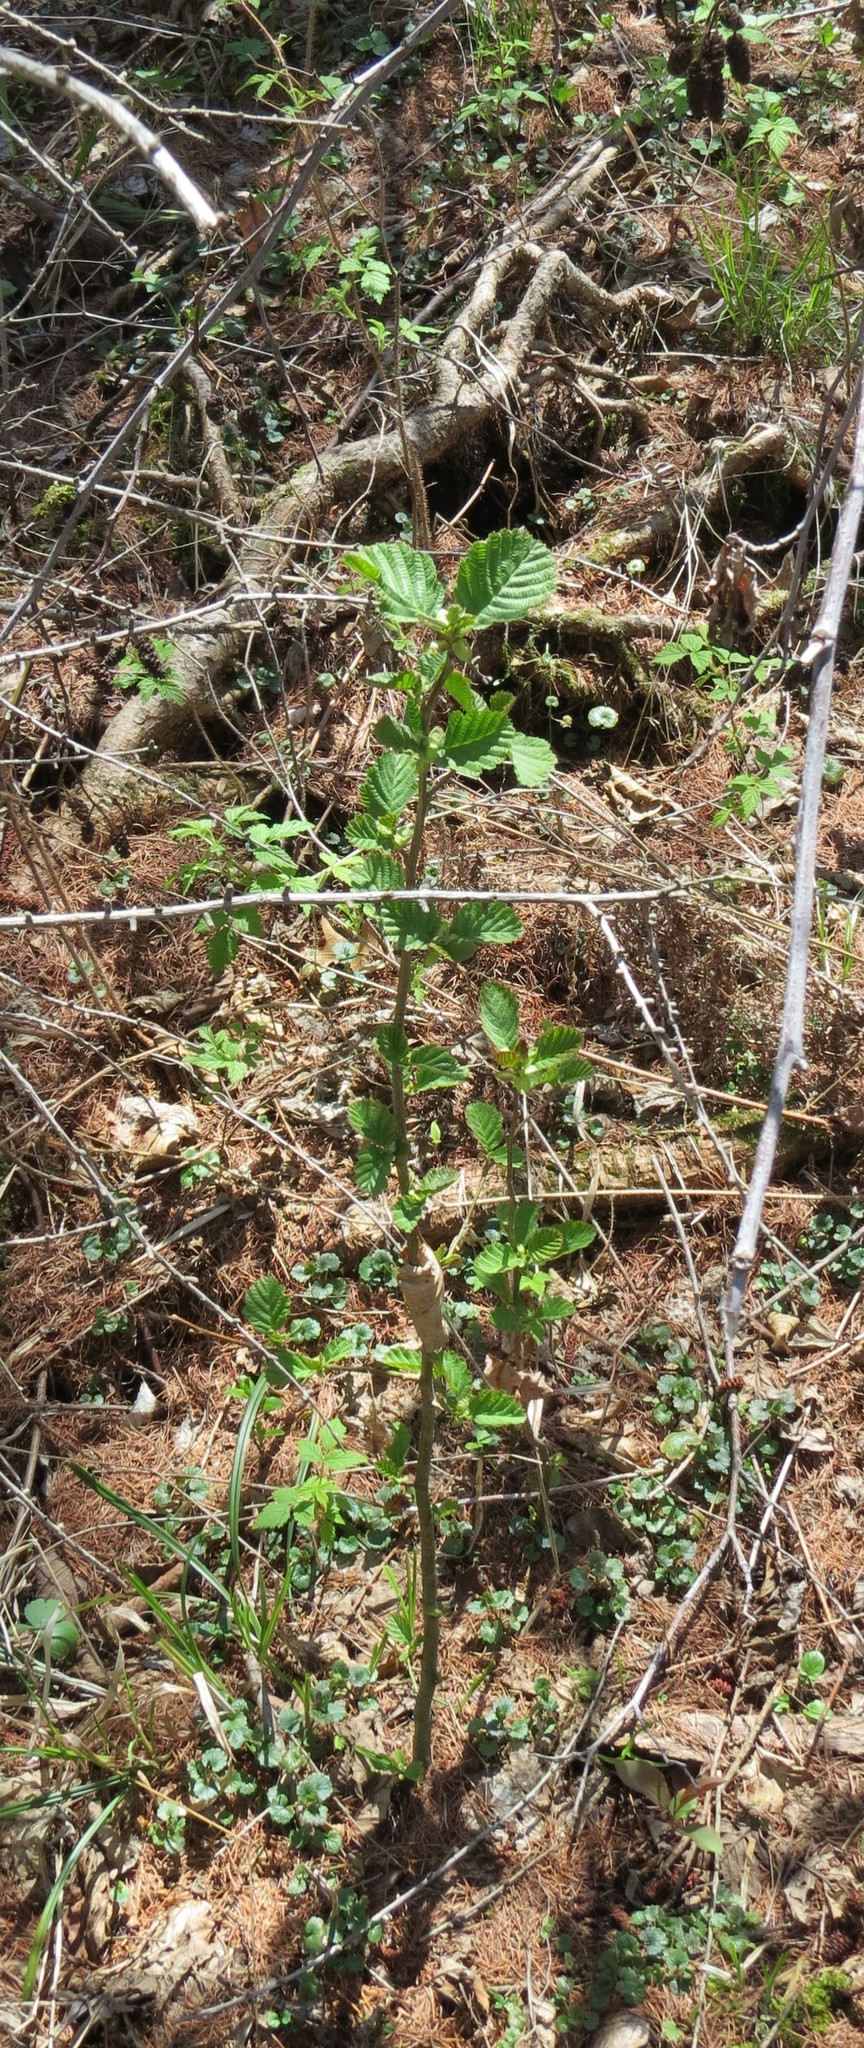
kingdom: Plantae
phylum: Tracheophyta
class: Magnoliopsida
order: Fagales
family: Betulaceae
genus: Alnus
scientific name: Alnus incana
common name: Grey alder
